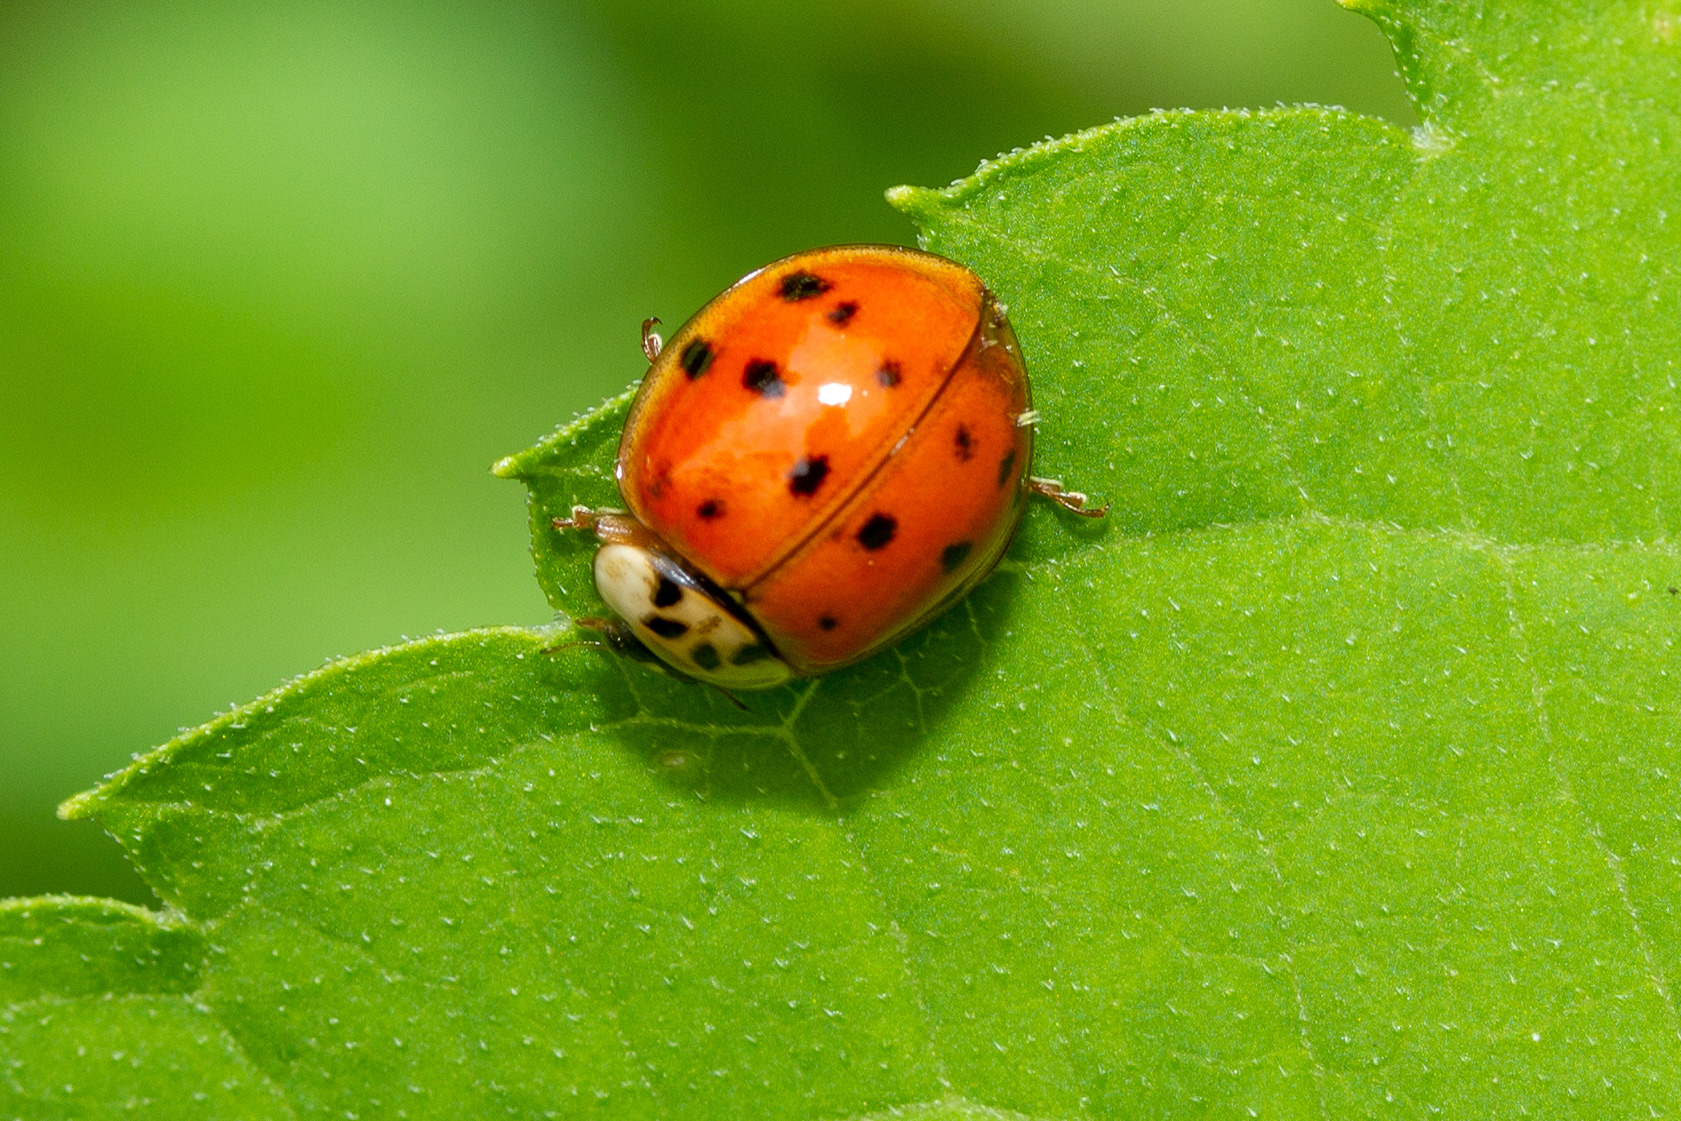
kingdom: Animalia
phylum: Arthropoda
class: Insecta
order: Coleoptera
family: Coccinellidae
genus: Harmonia
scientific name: Harmonia axyridis
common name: Harlequin ladybird
